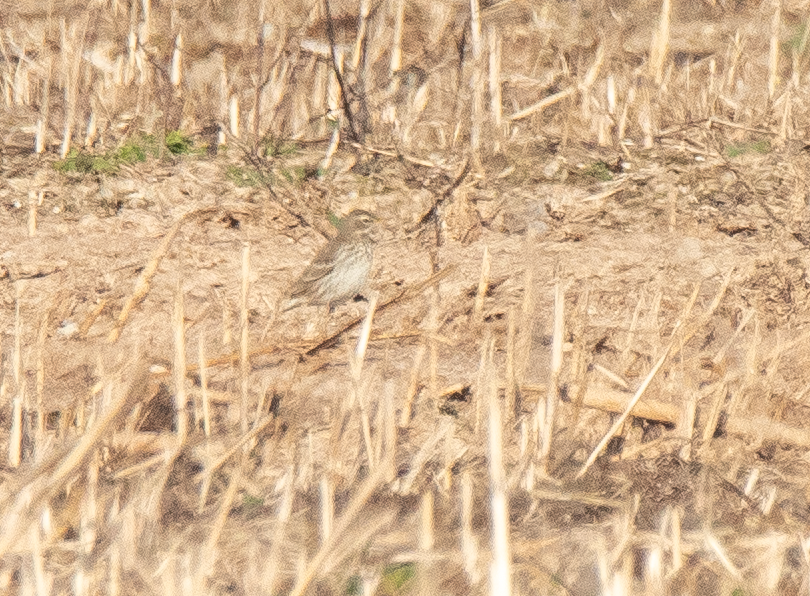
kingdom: Animalia
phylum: Chordata
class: Aves
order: Passeriformes
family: Motacillidae
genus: Anthus
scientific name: Anthus spinoletta
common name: Water pipit
